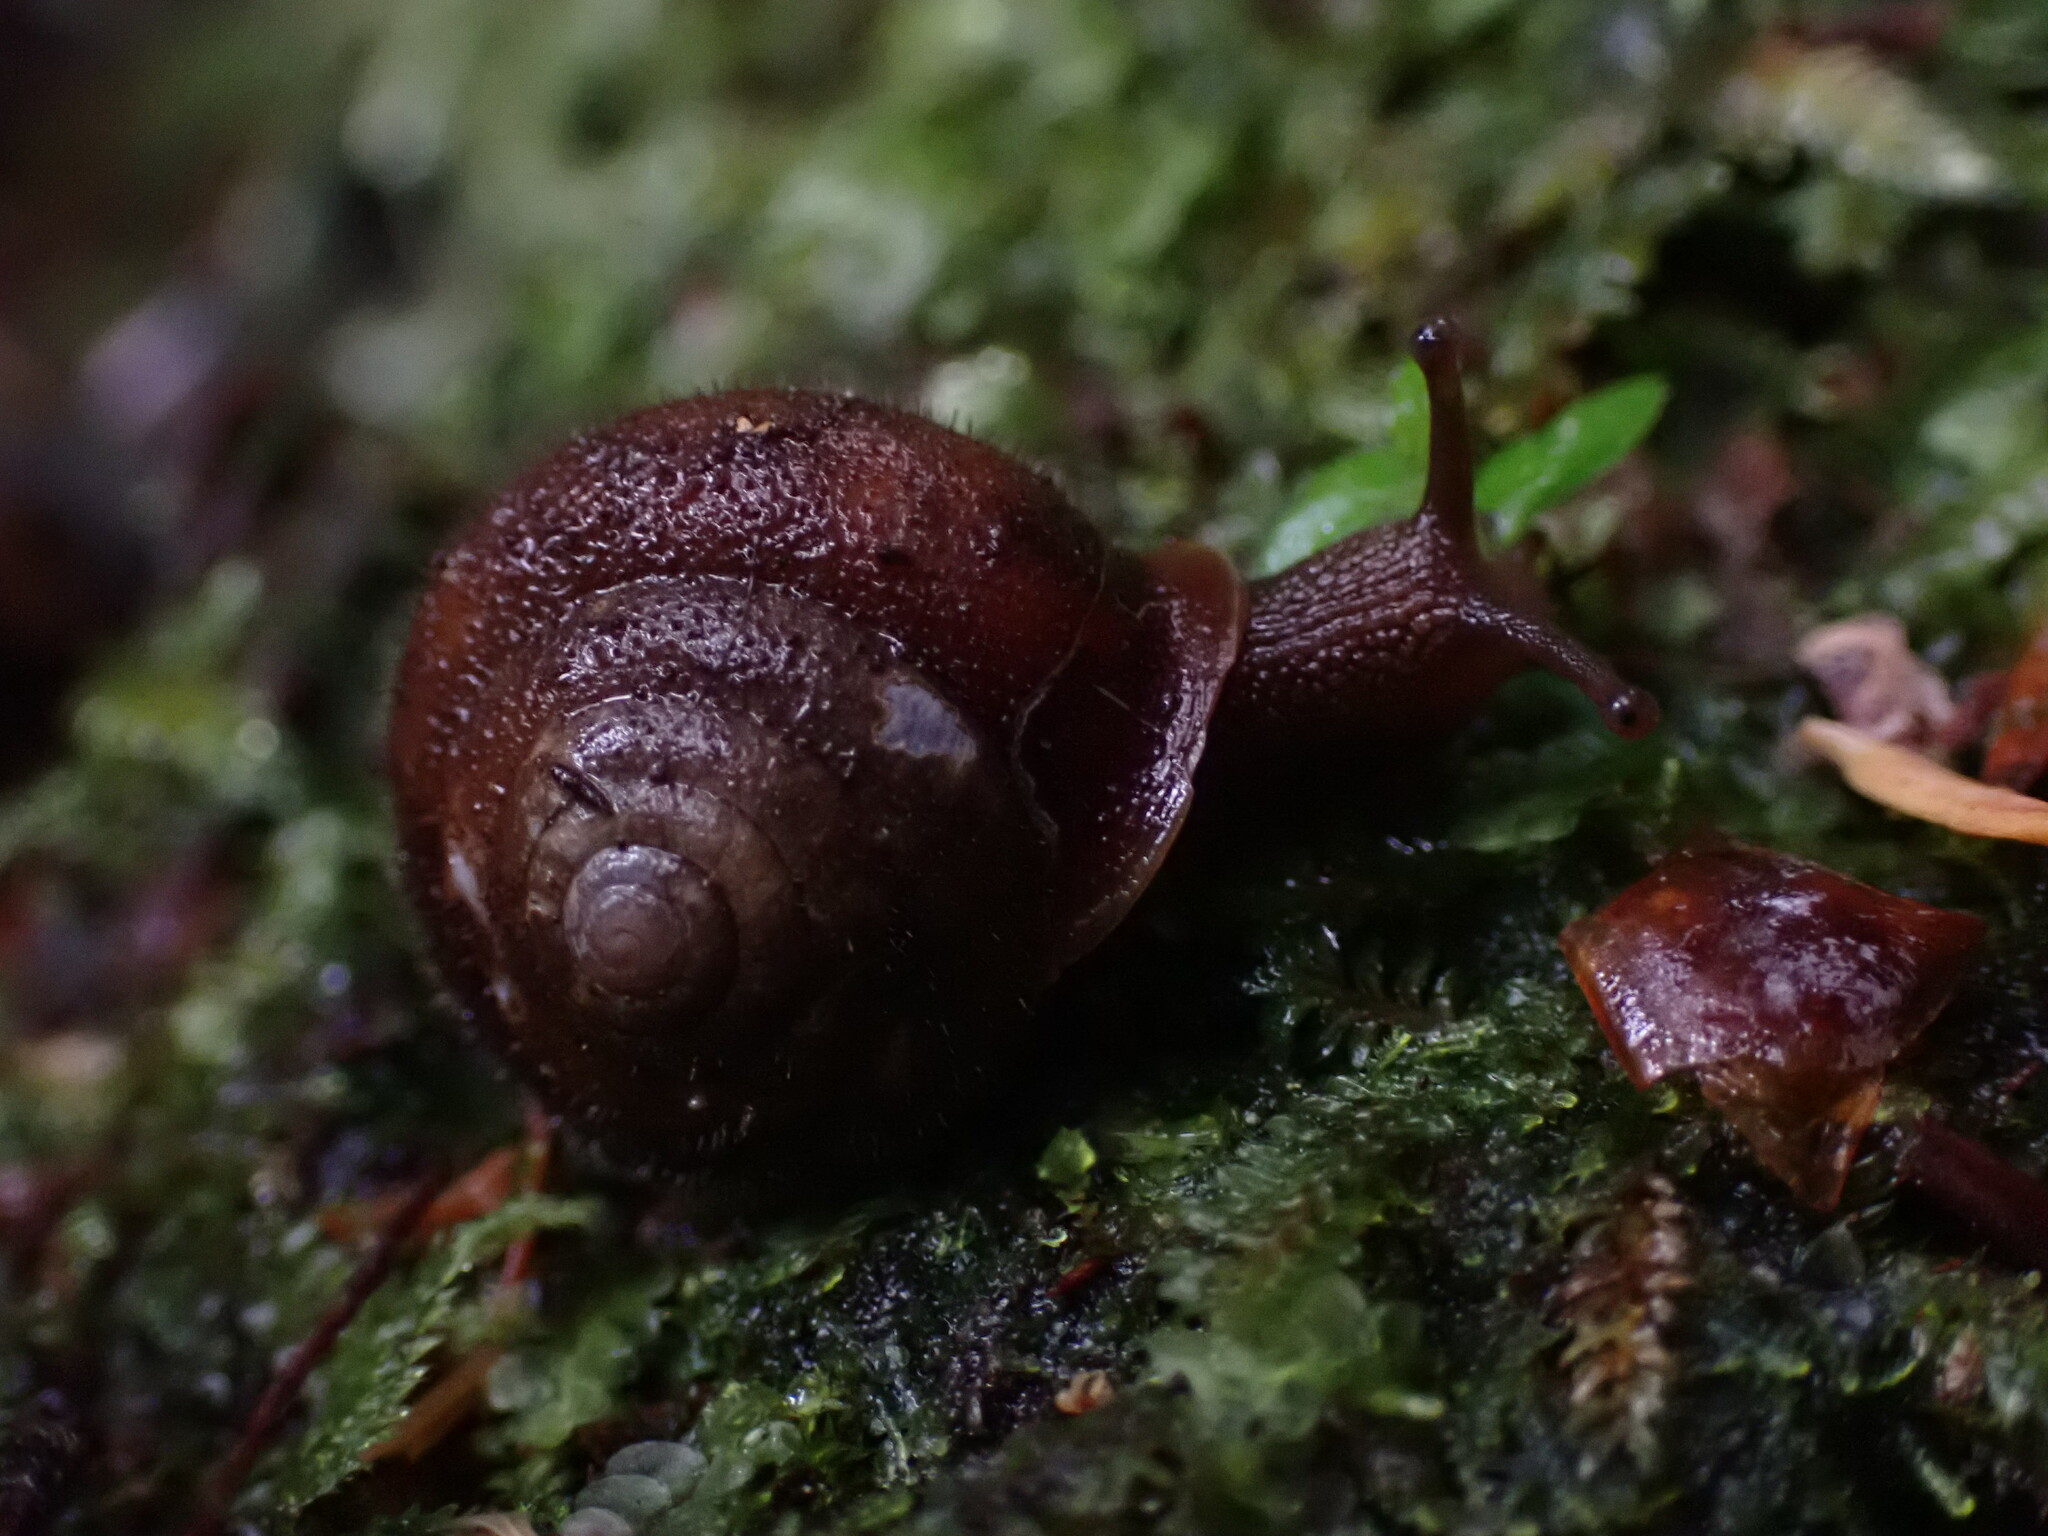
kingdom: Animalia
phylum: Mollusca
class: Gastropoda
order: Stylommatophora
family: Polygyridae
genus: Vespericola
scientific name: Vespericola columbianus
